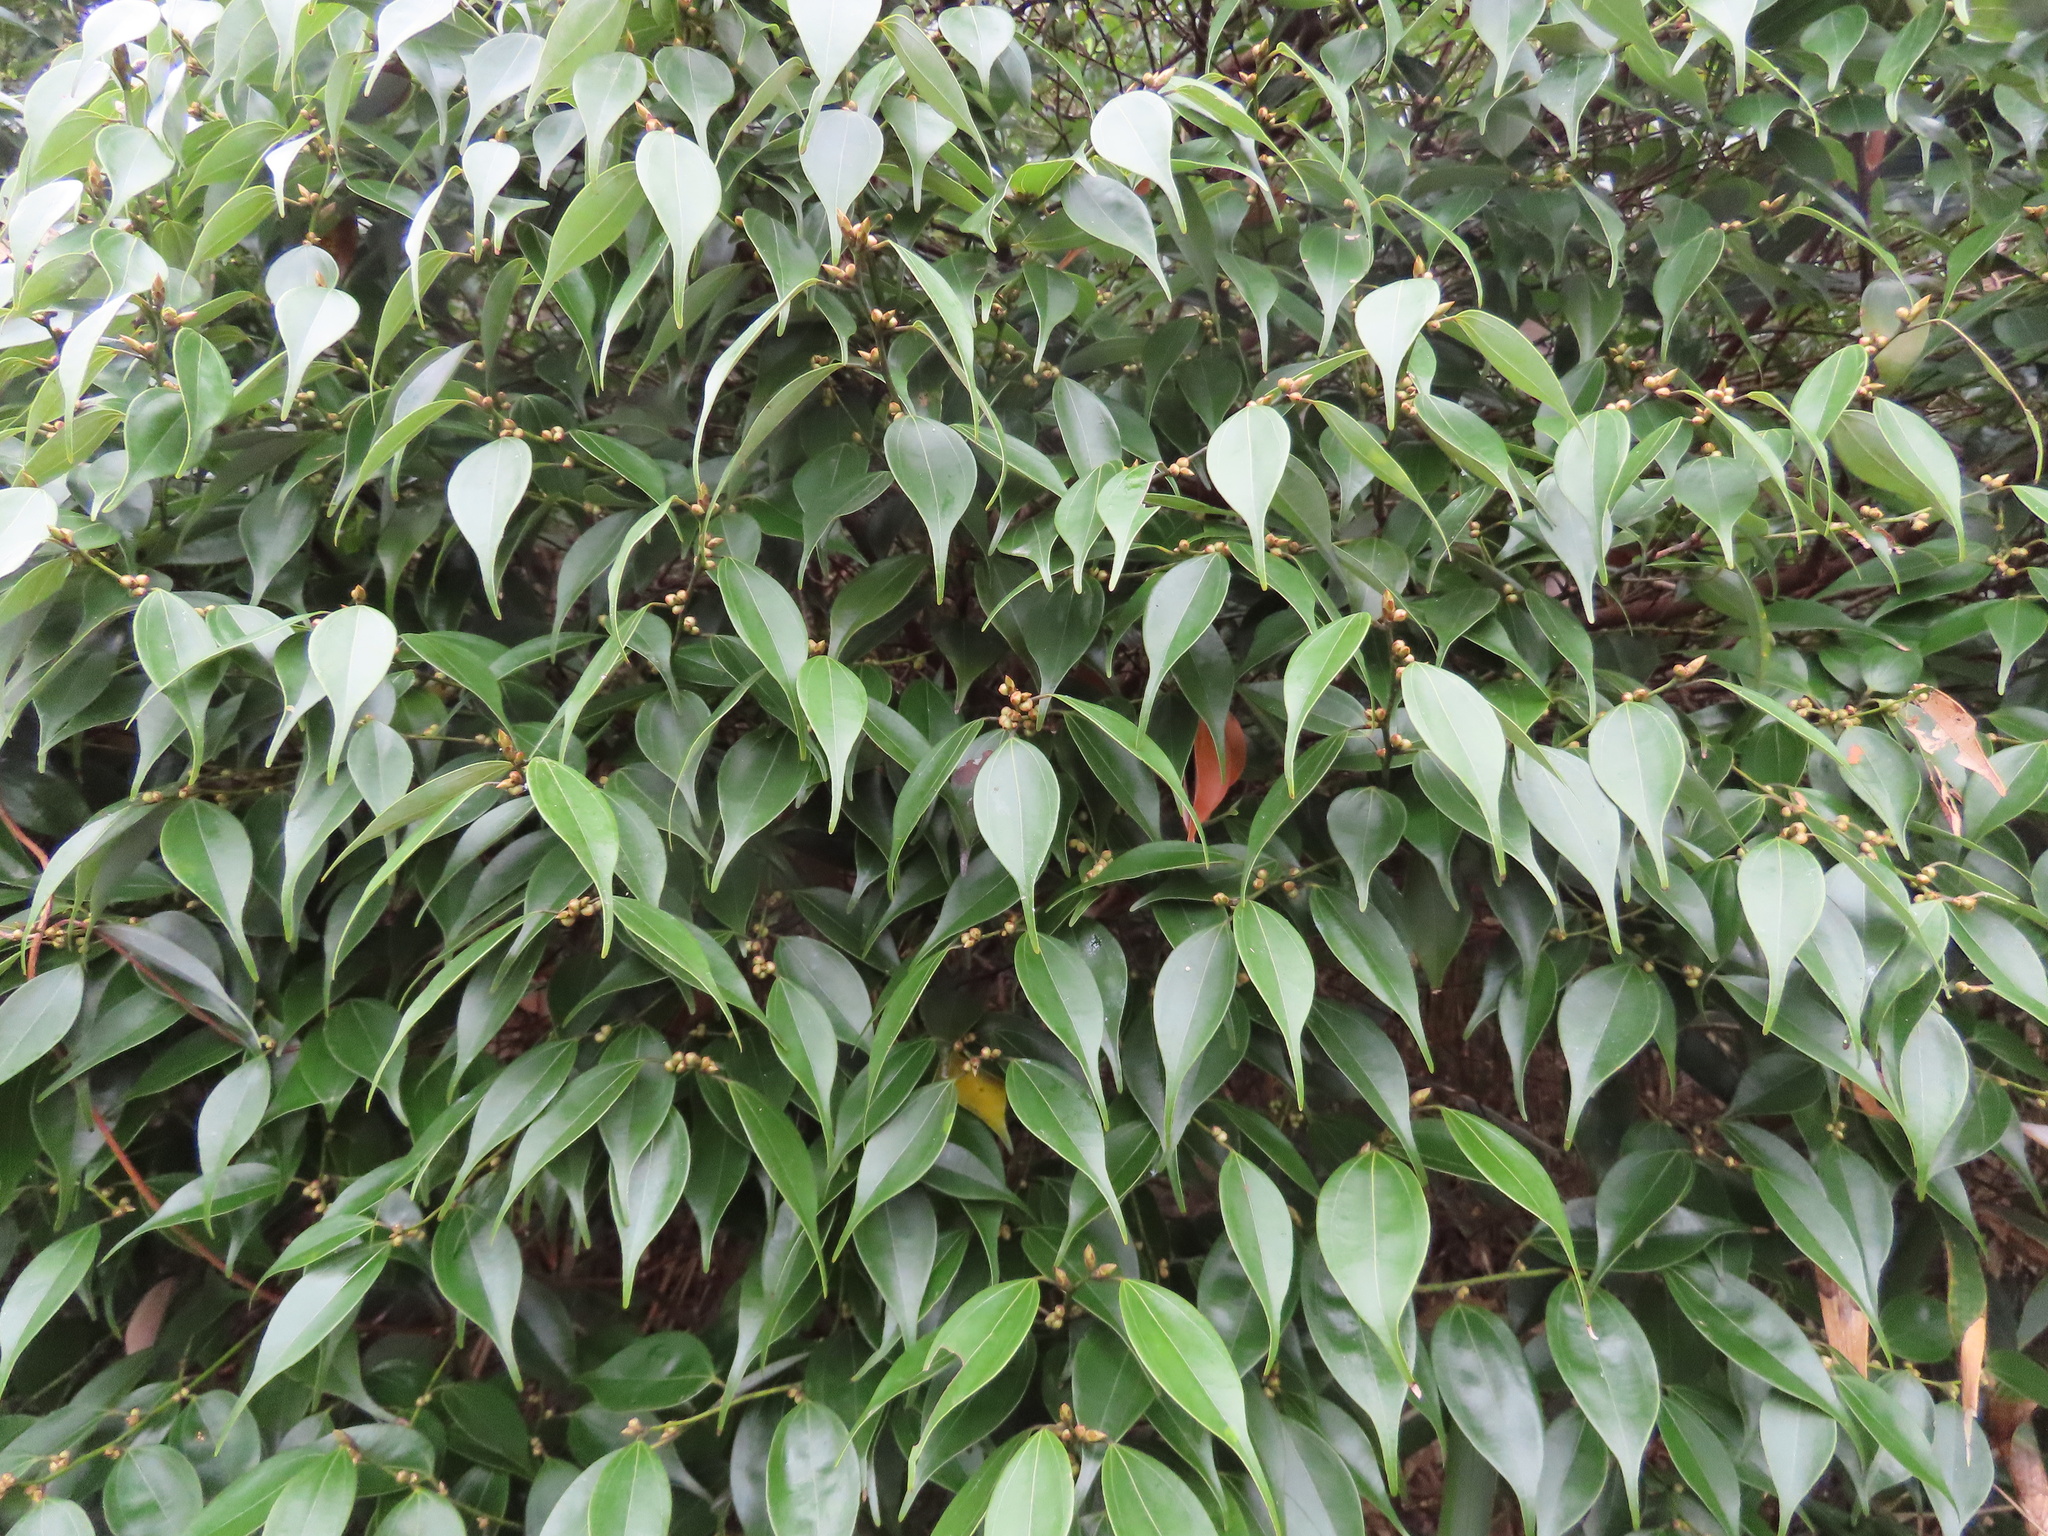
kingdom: Plantae
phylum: Tracheophyta
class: Magnoliopsida
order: Laurales
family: Lauraceae
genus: Lindera
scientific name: Lindera aggregata
